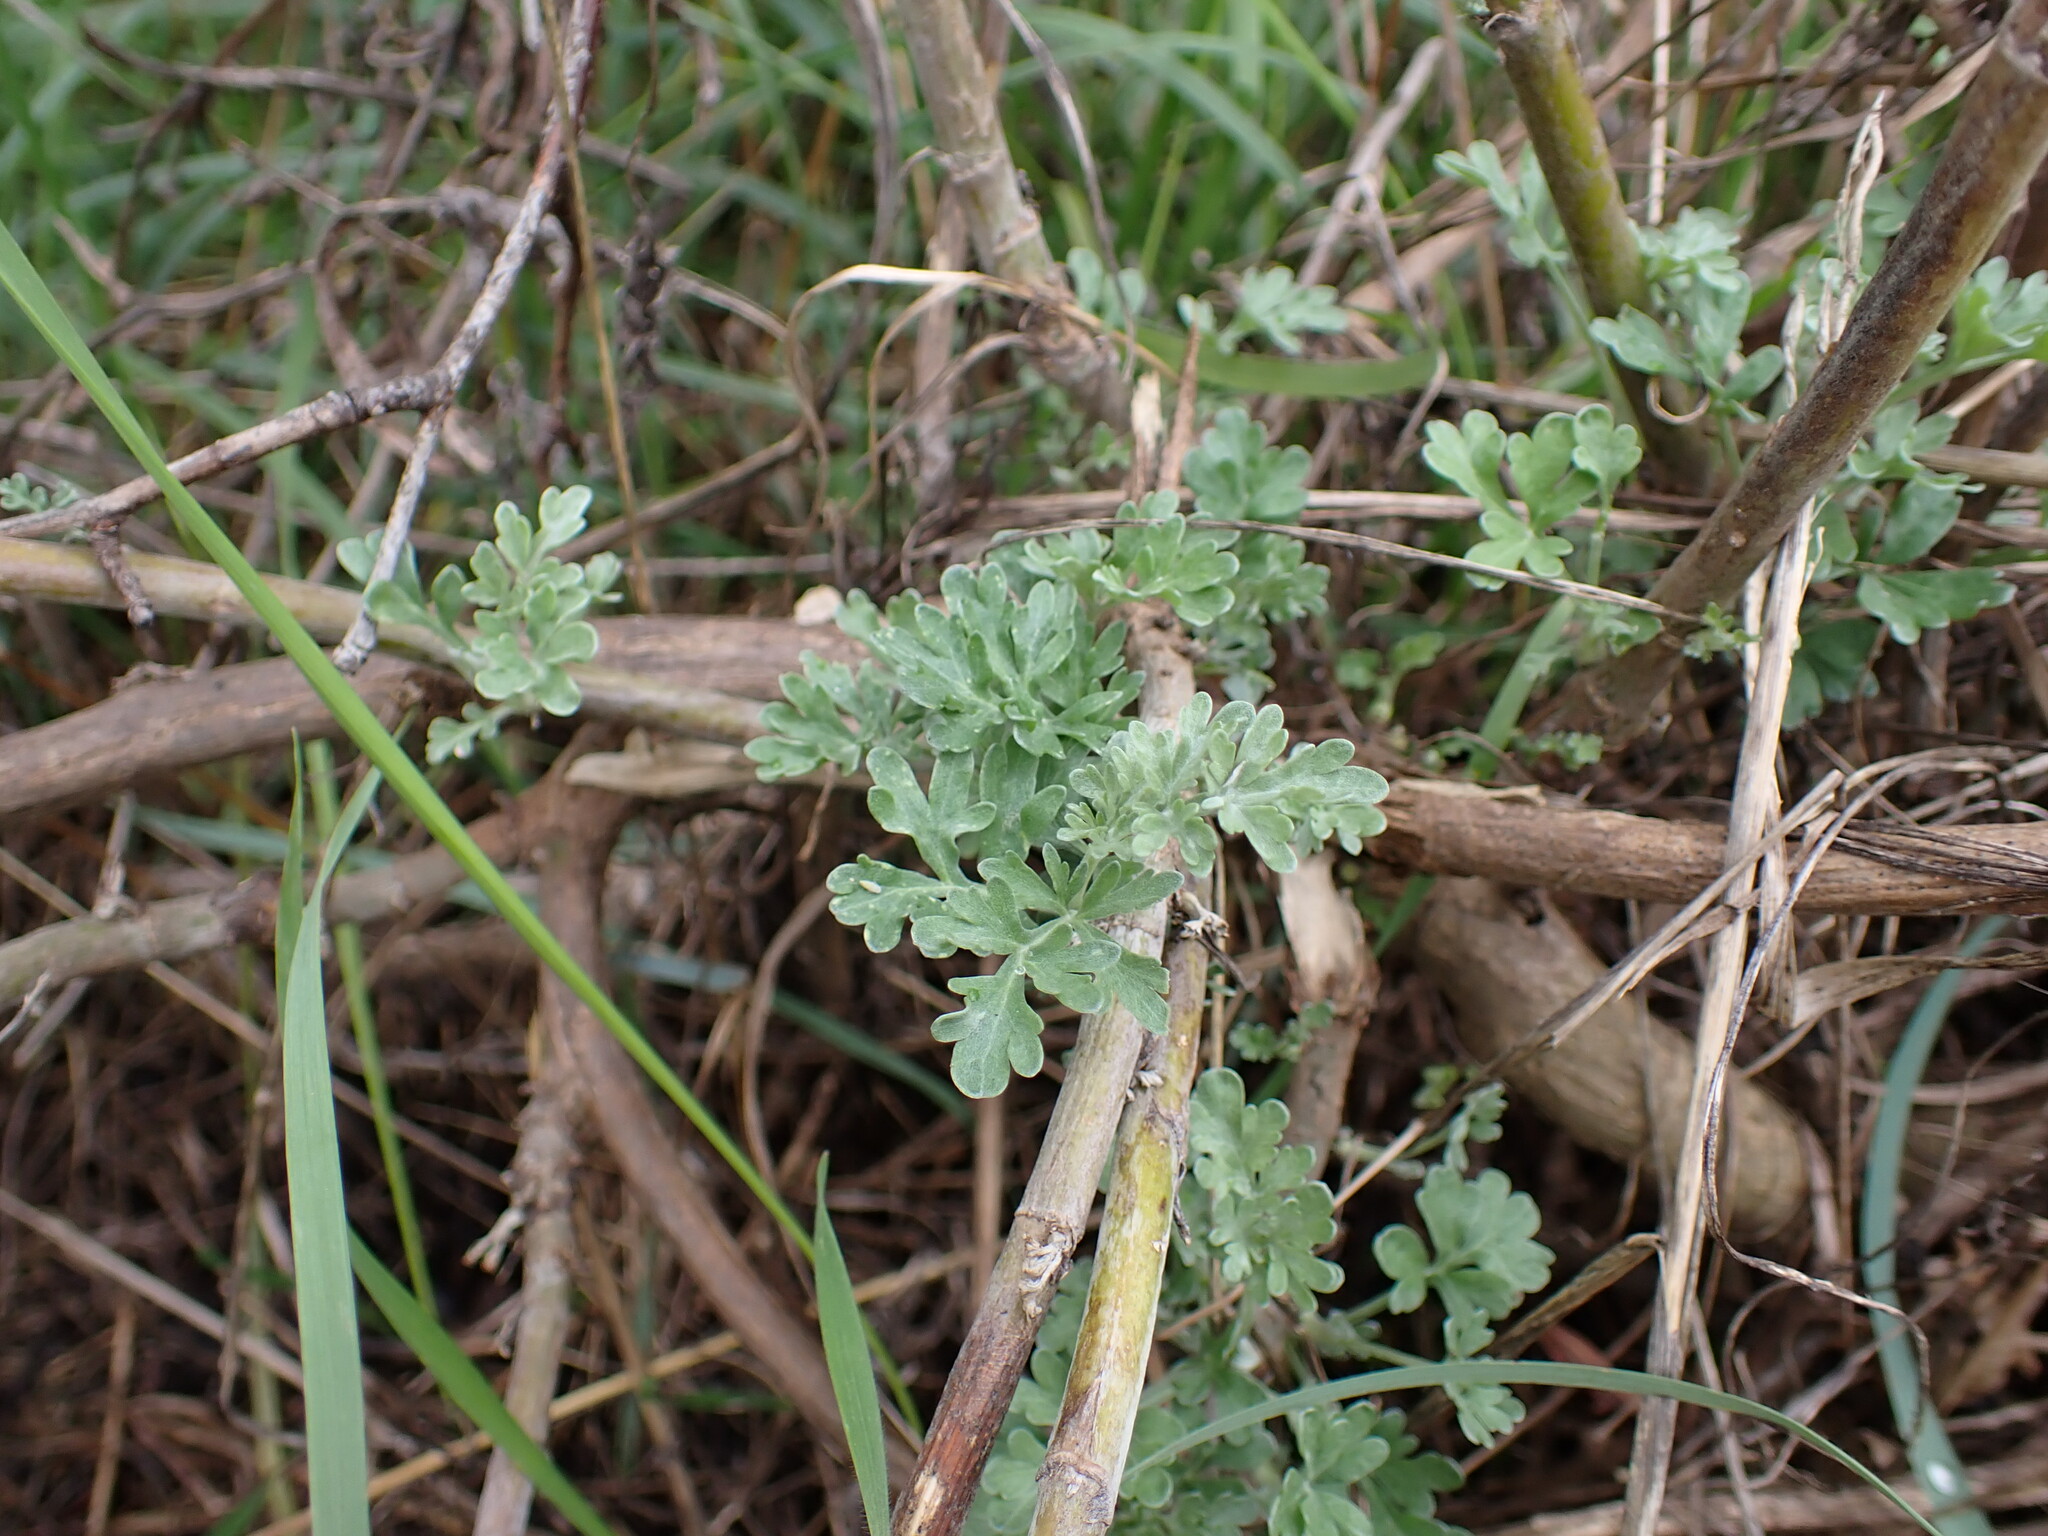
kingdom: Plantae
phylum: Tracheophyta
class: Magnoliopsida
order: Asterales
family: Asteraceae
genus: Artemisia
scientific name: Artemisia absinthium
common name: Wormwood
